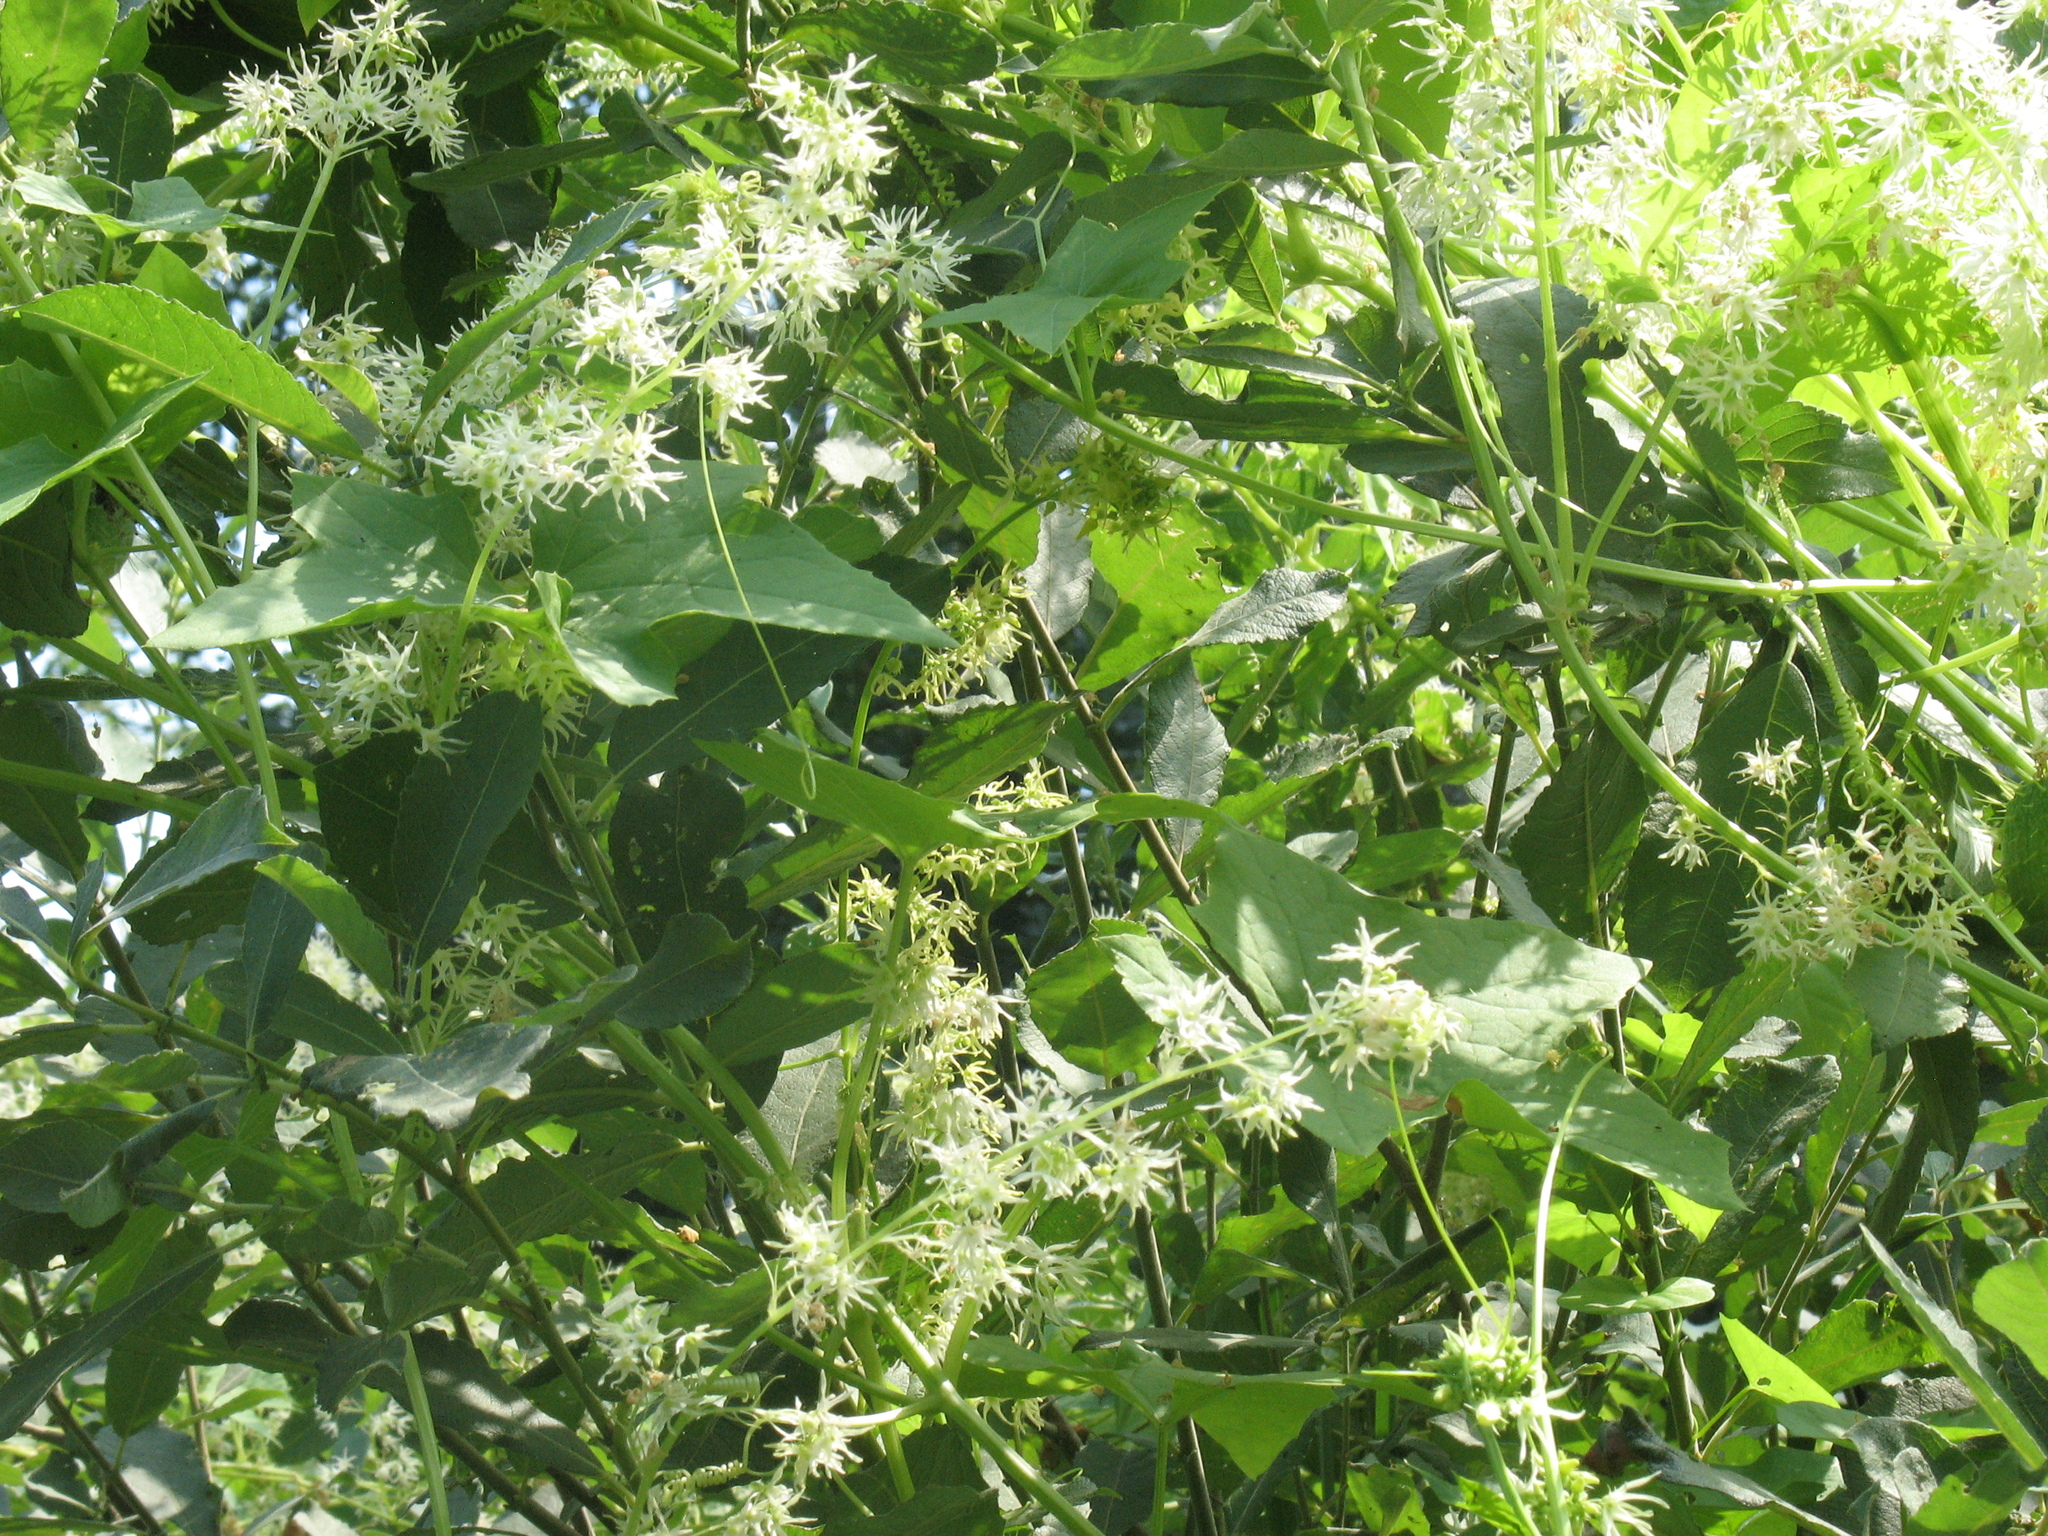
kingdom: Plantae
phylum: Tracheophyta
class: Magnoliopsida
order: Cucurbitales
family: Cucurbitaceae
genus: Echinocystis
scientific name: Echinocystis lobata
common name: Wild cucumber
